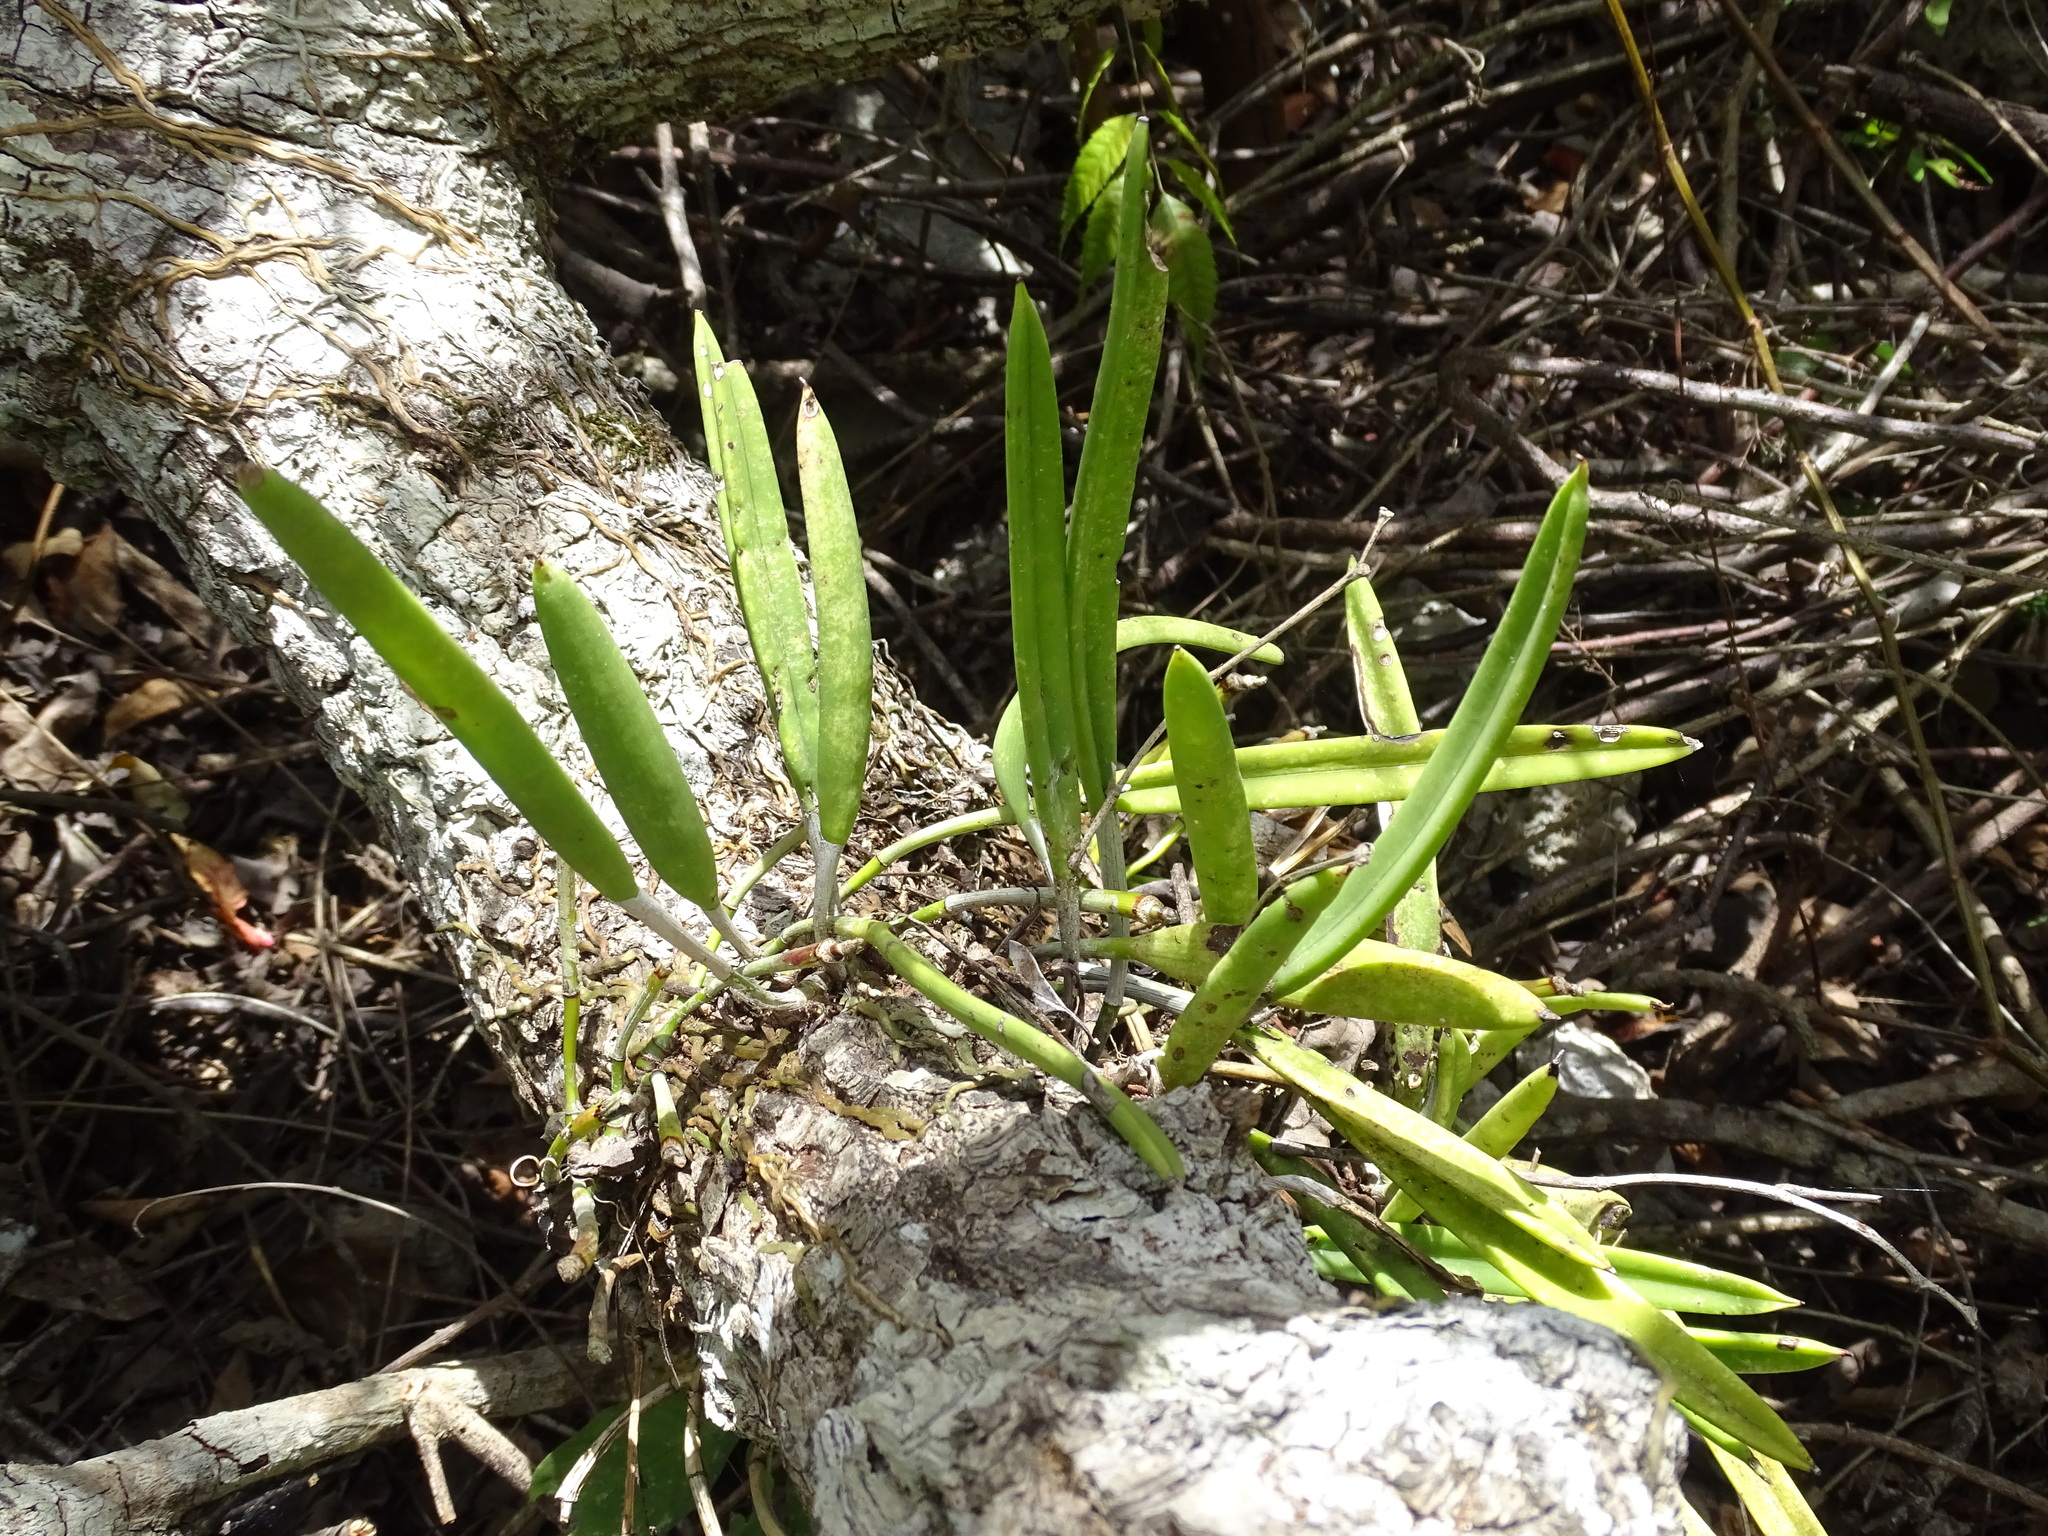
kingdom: Plantae
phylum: Tracheophyta
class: Liliopsida
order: Asparagales
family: Orchidaceae
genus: Brassavola
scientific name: Brassavola nodosa
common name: Lady of the night
